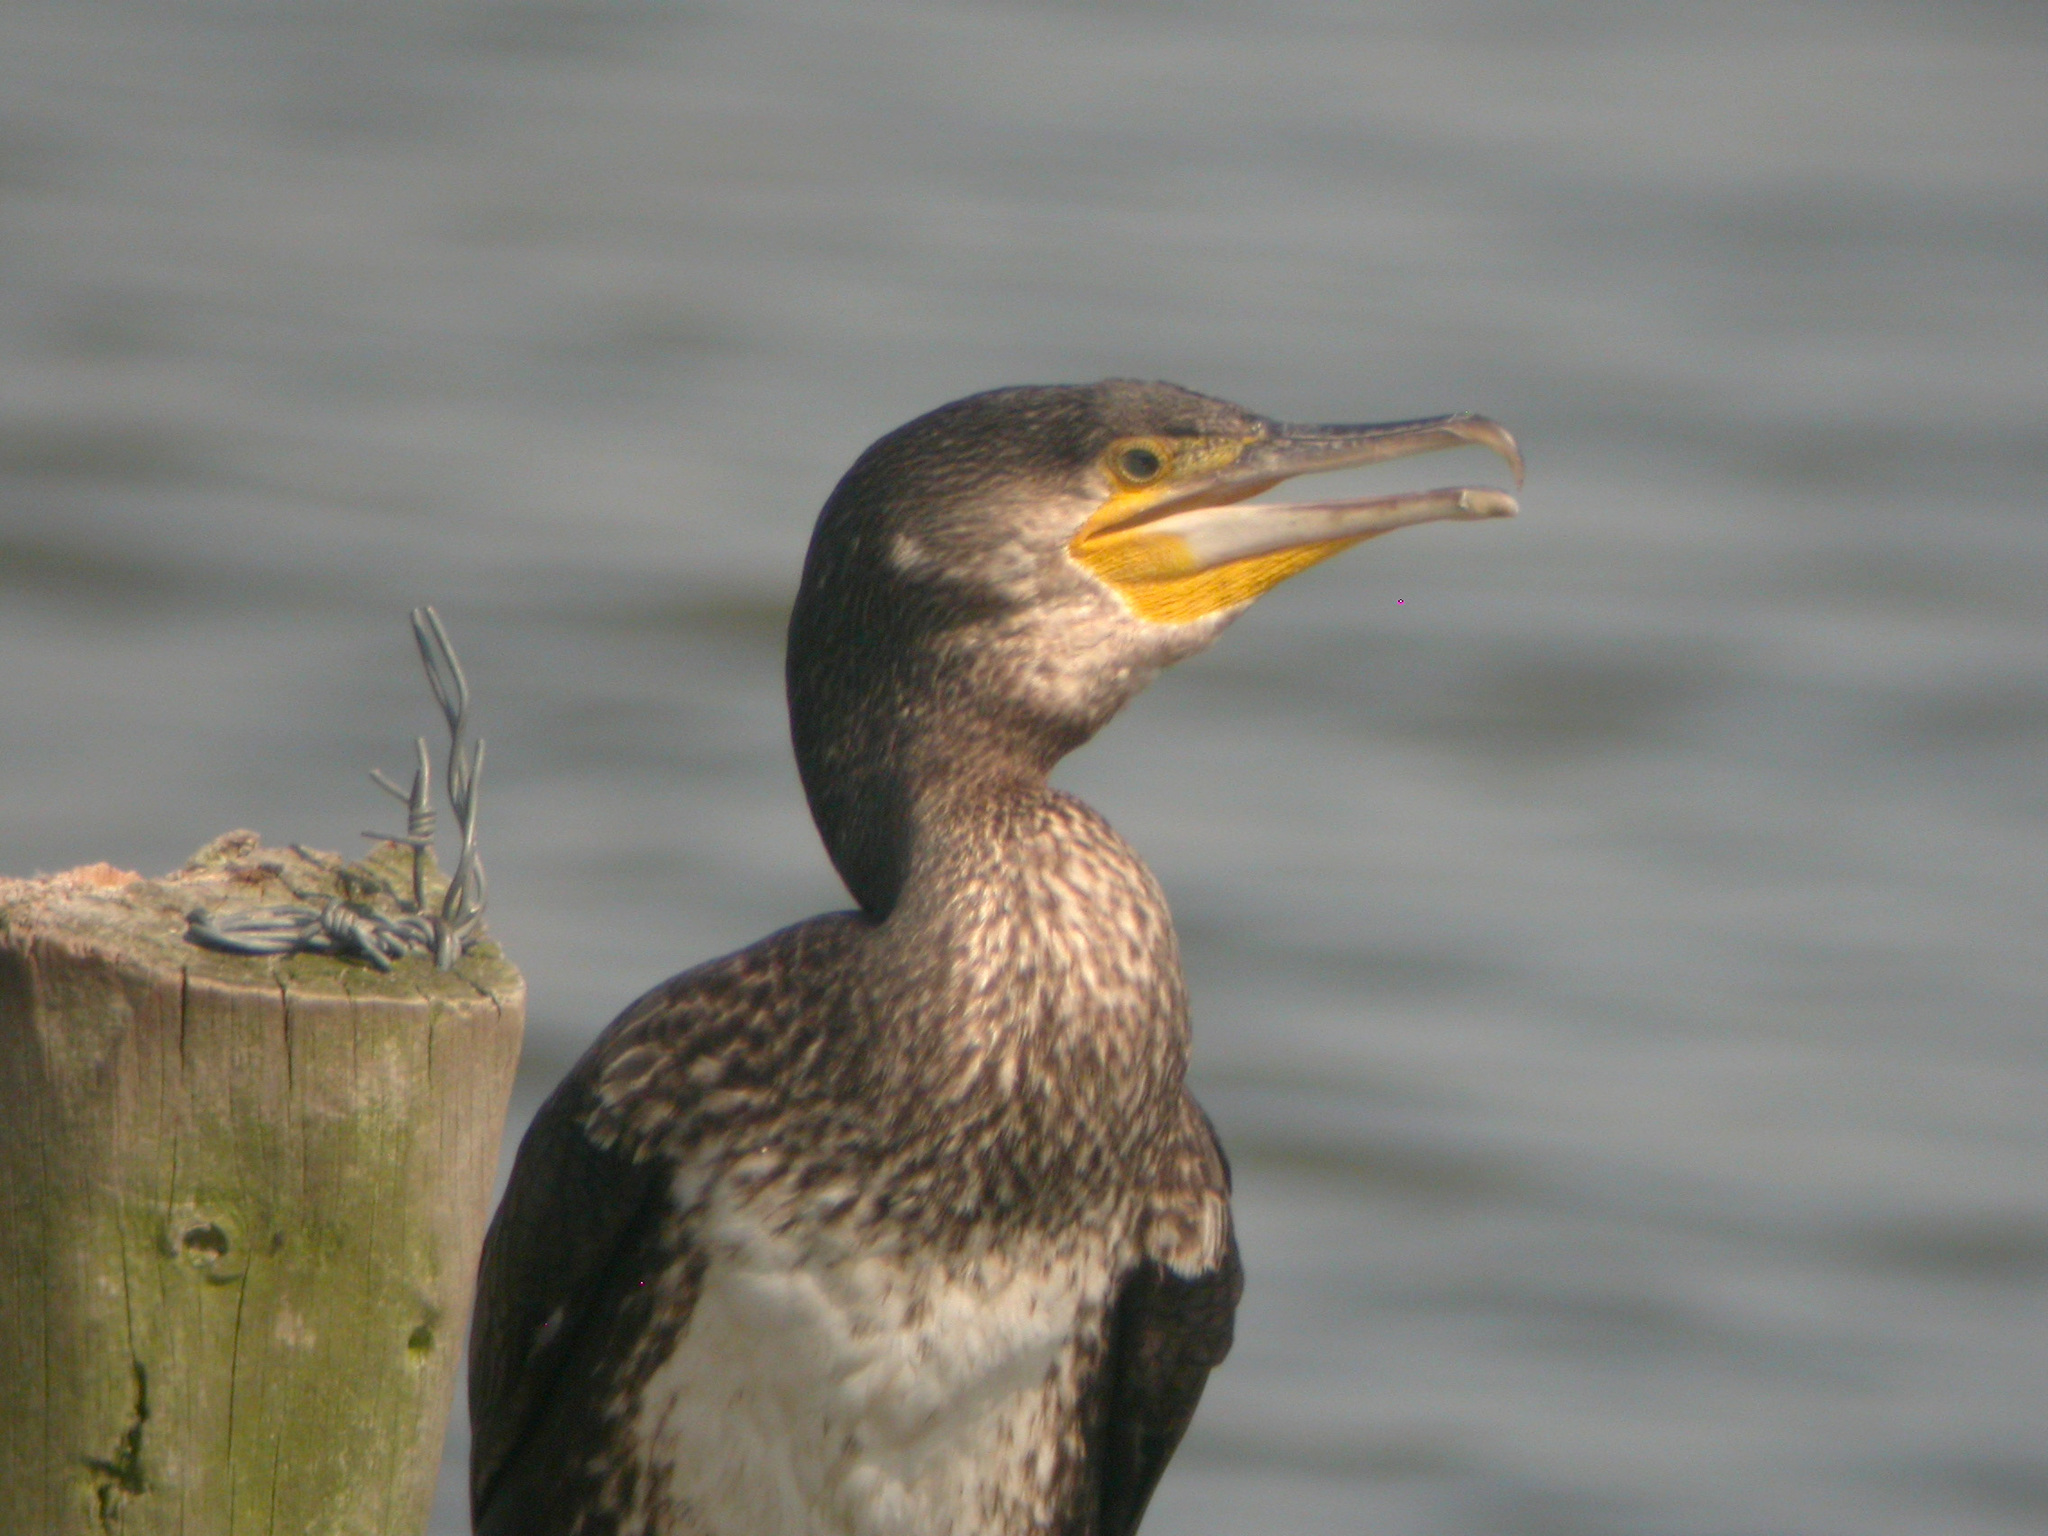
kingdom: Animalia
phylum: Chordata
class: Aves
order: Suliformes
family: Phalacrocoracidae
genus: Phalacrocorax
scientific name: Phalacrocorax carbo
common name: Great cormorant
